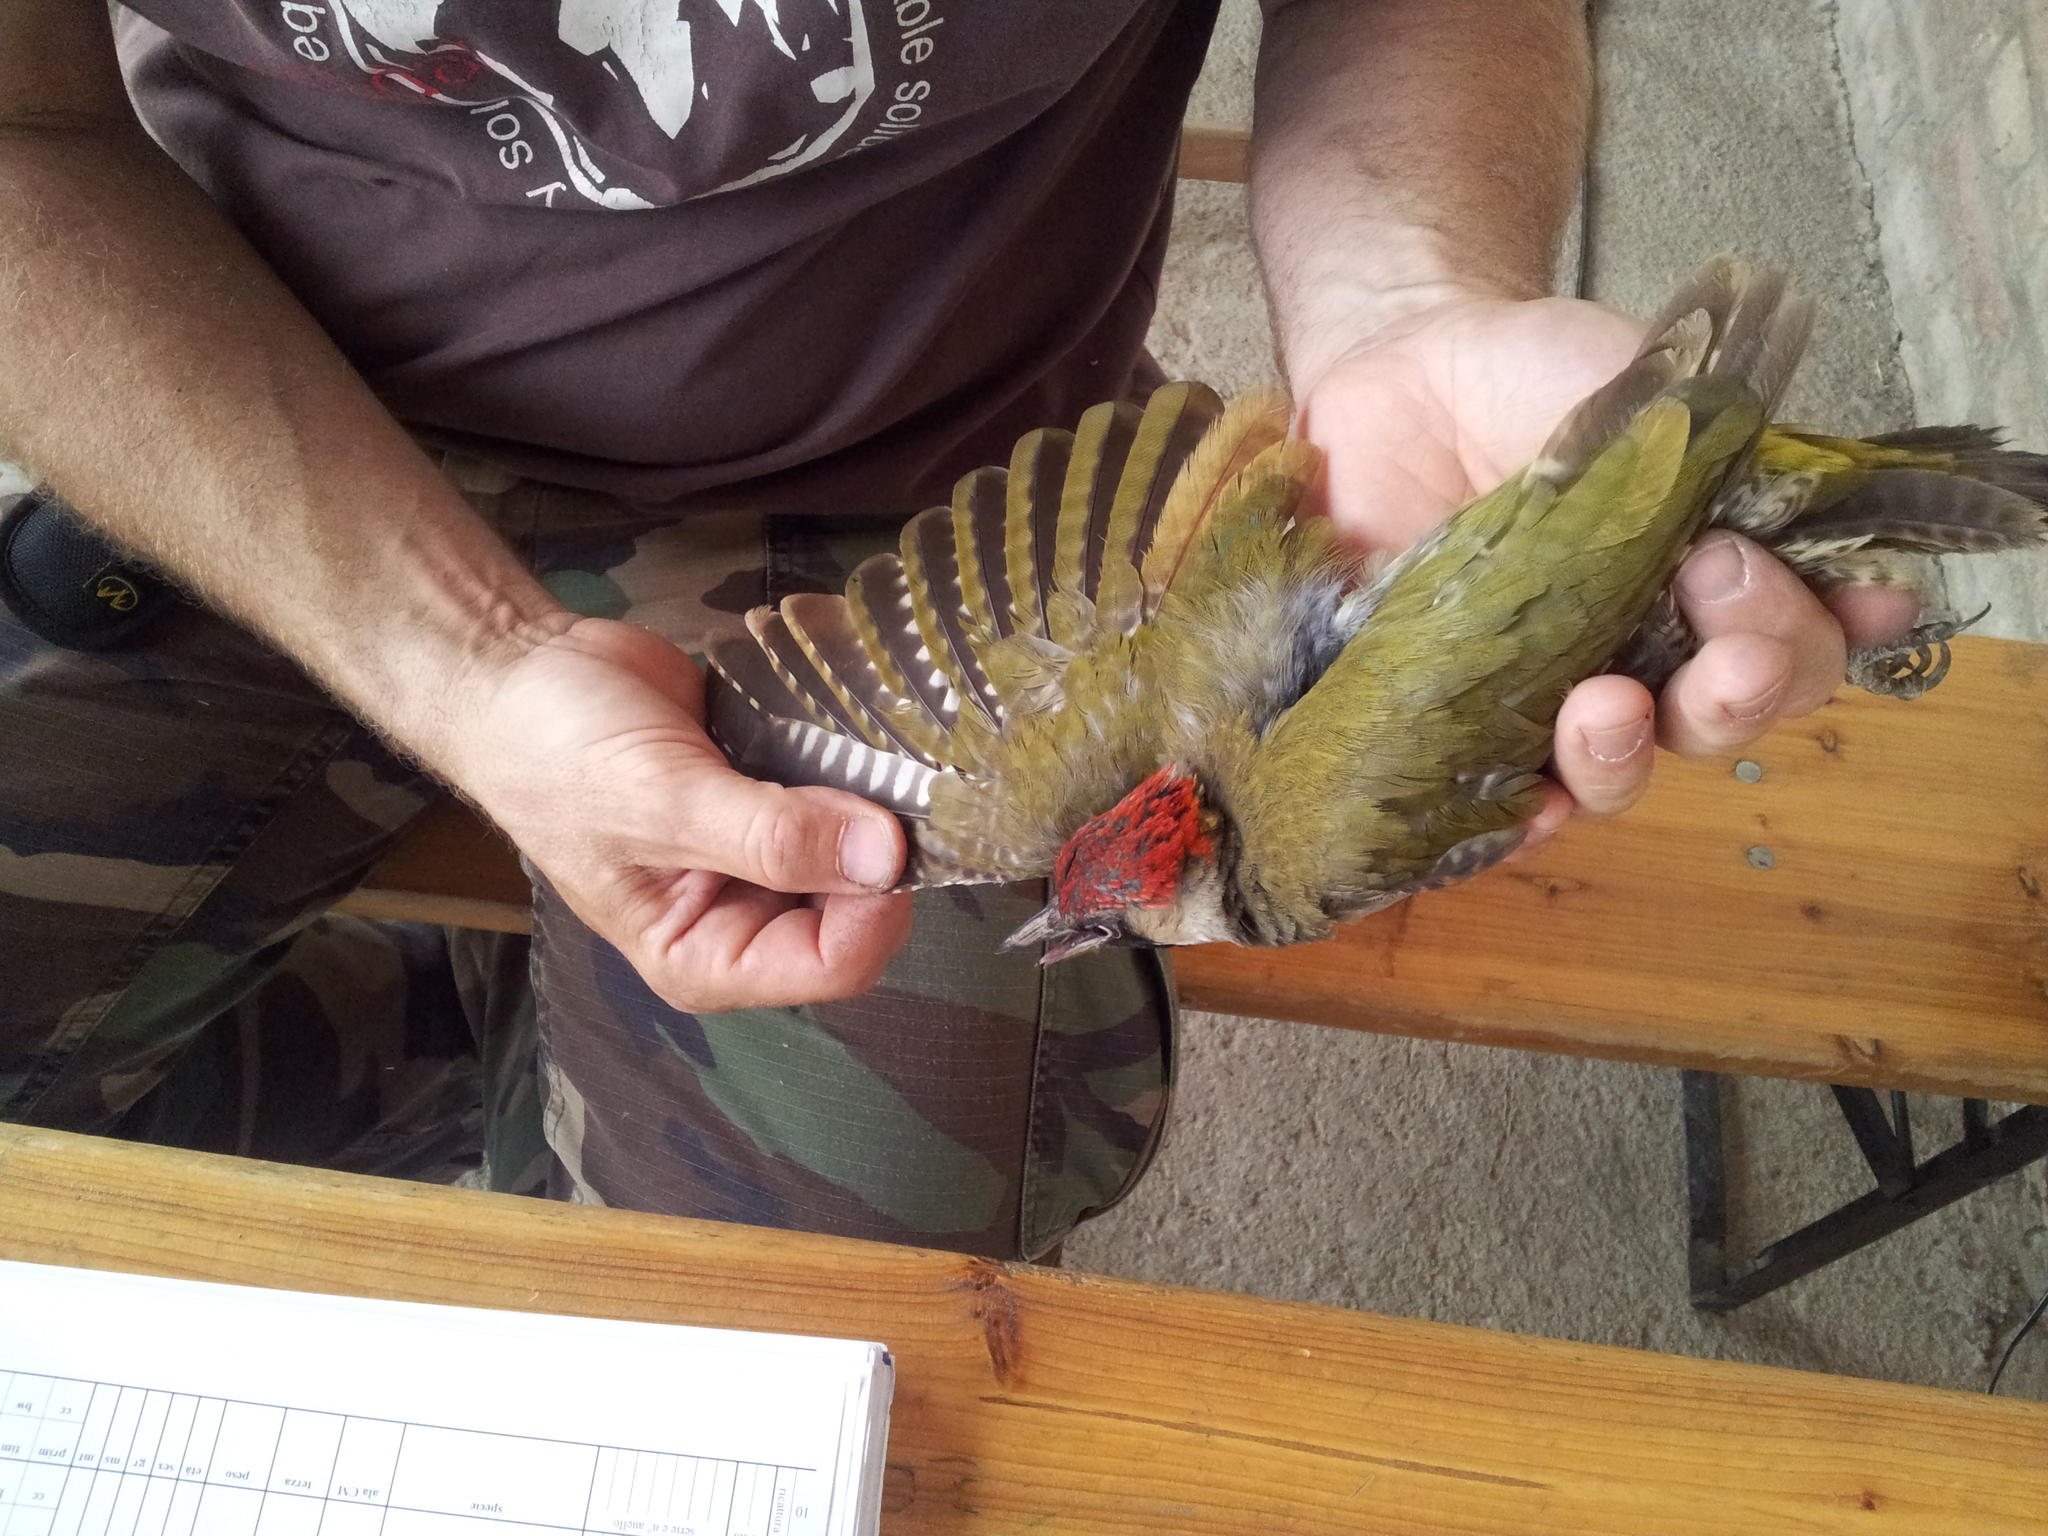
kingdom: Animalia
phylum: Chordata
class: Aves
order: Piciformes
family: Picidae
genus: Picus
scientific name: Picus viridis
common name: European green woodpecker
